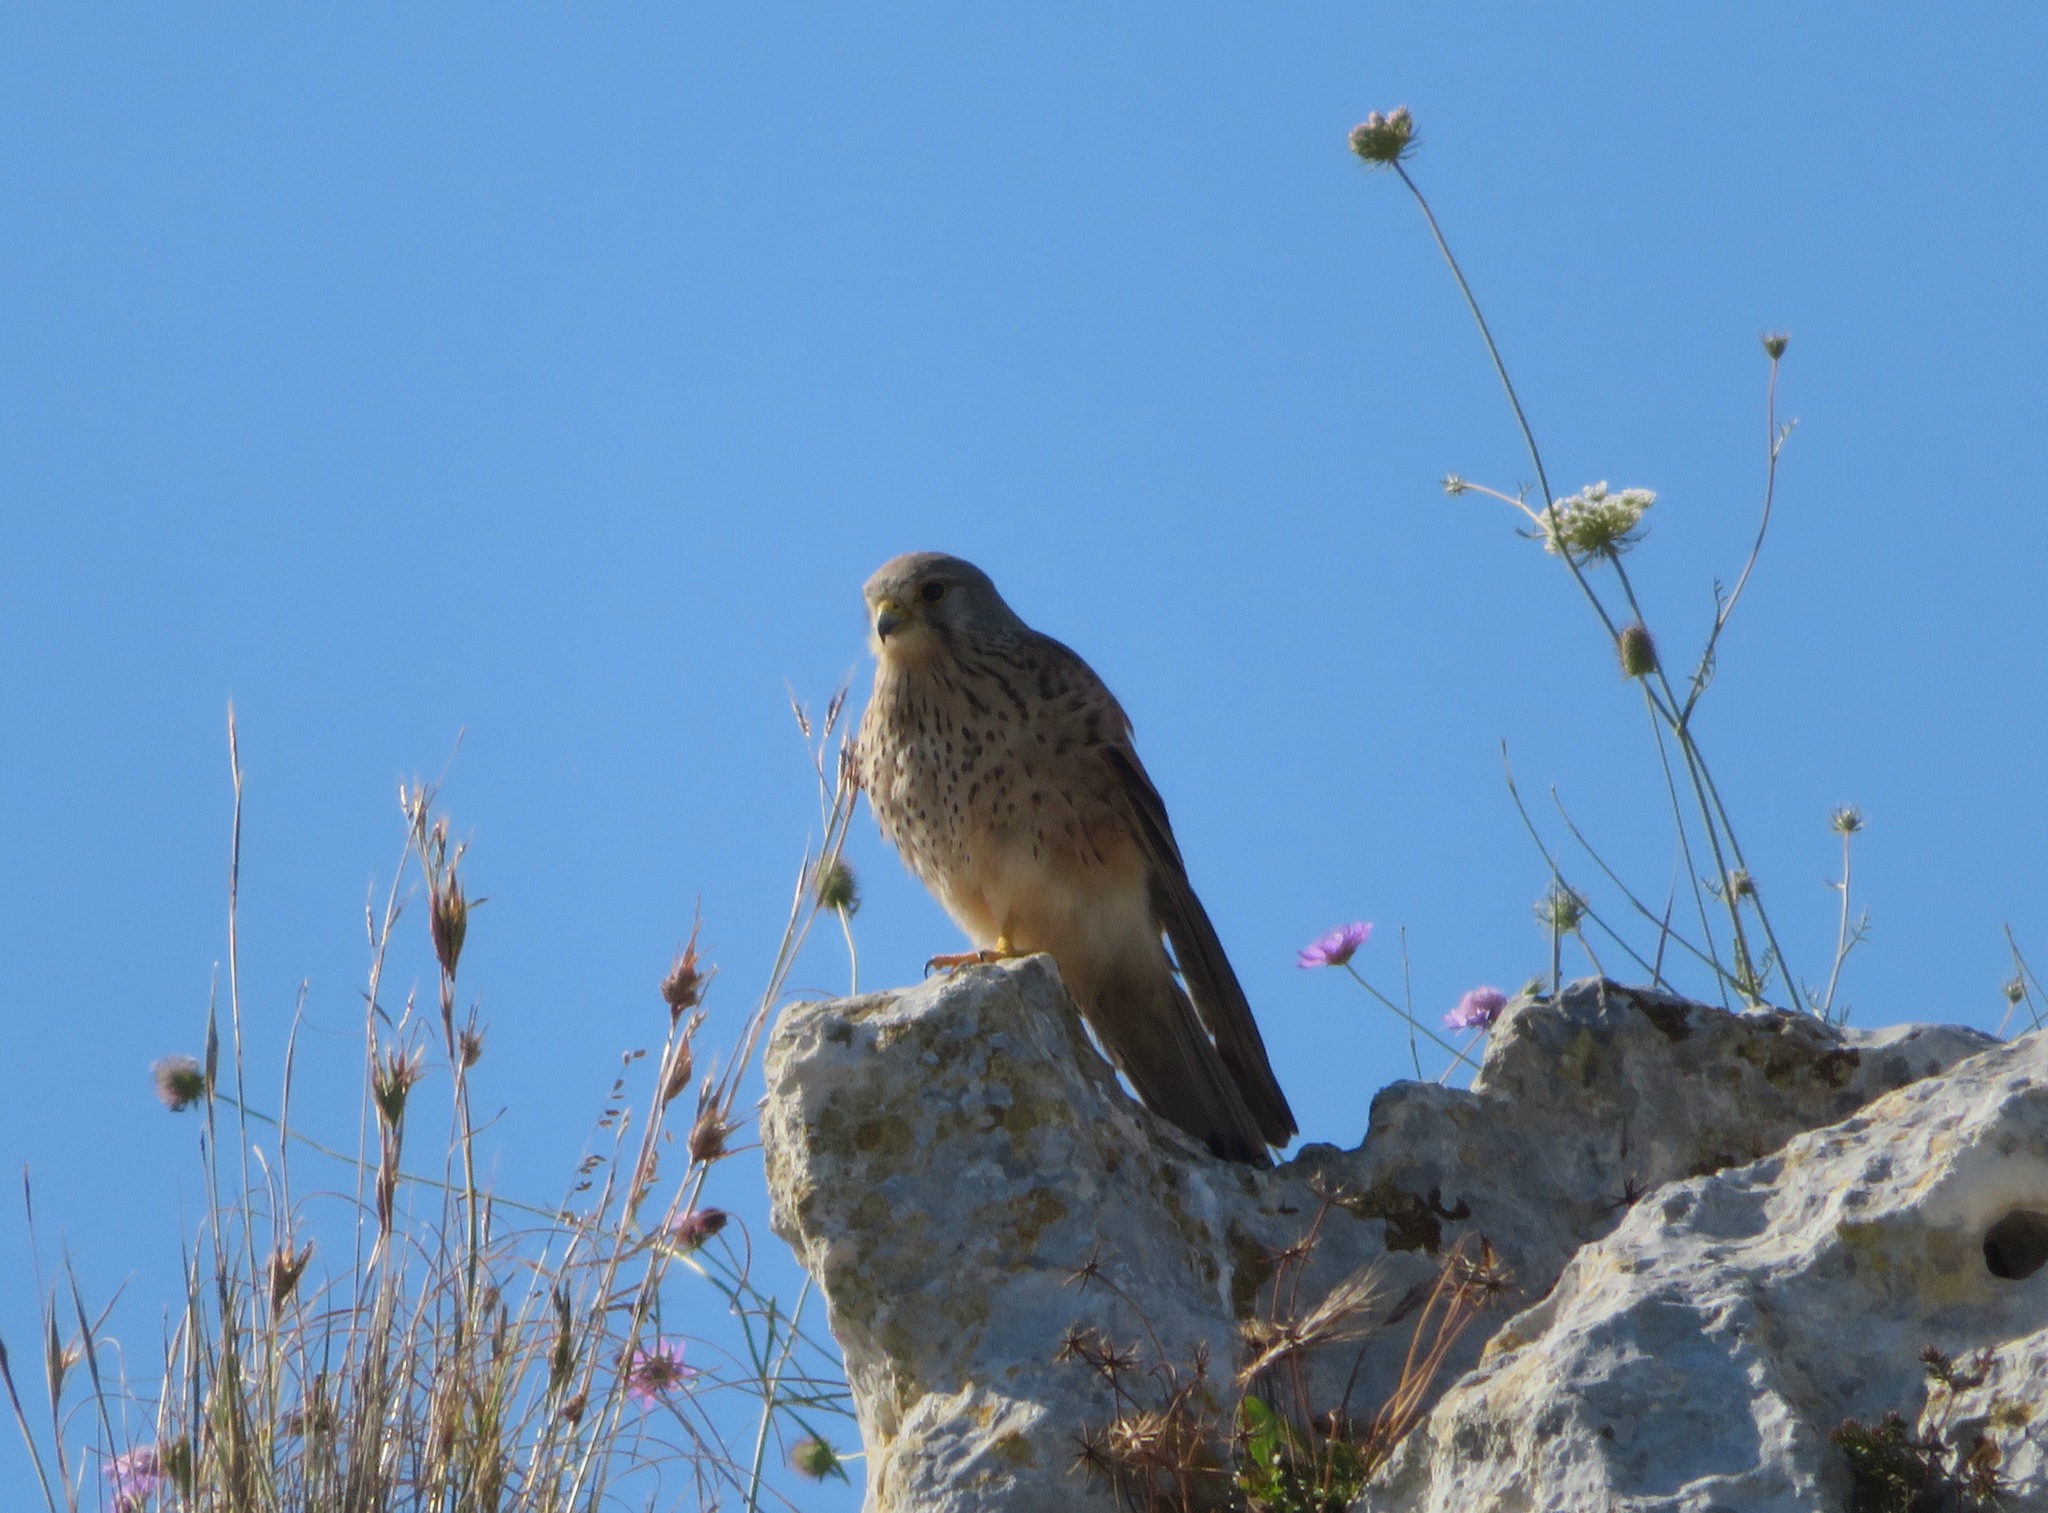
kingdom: Animalia
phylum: Chordata
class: Aves
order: Falconiformes
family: Falconidae
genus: Falco
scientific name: Falco tinnunculus
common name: Common kestrel
